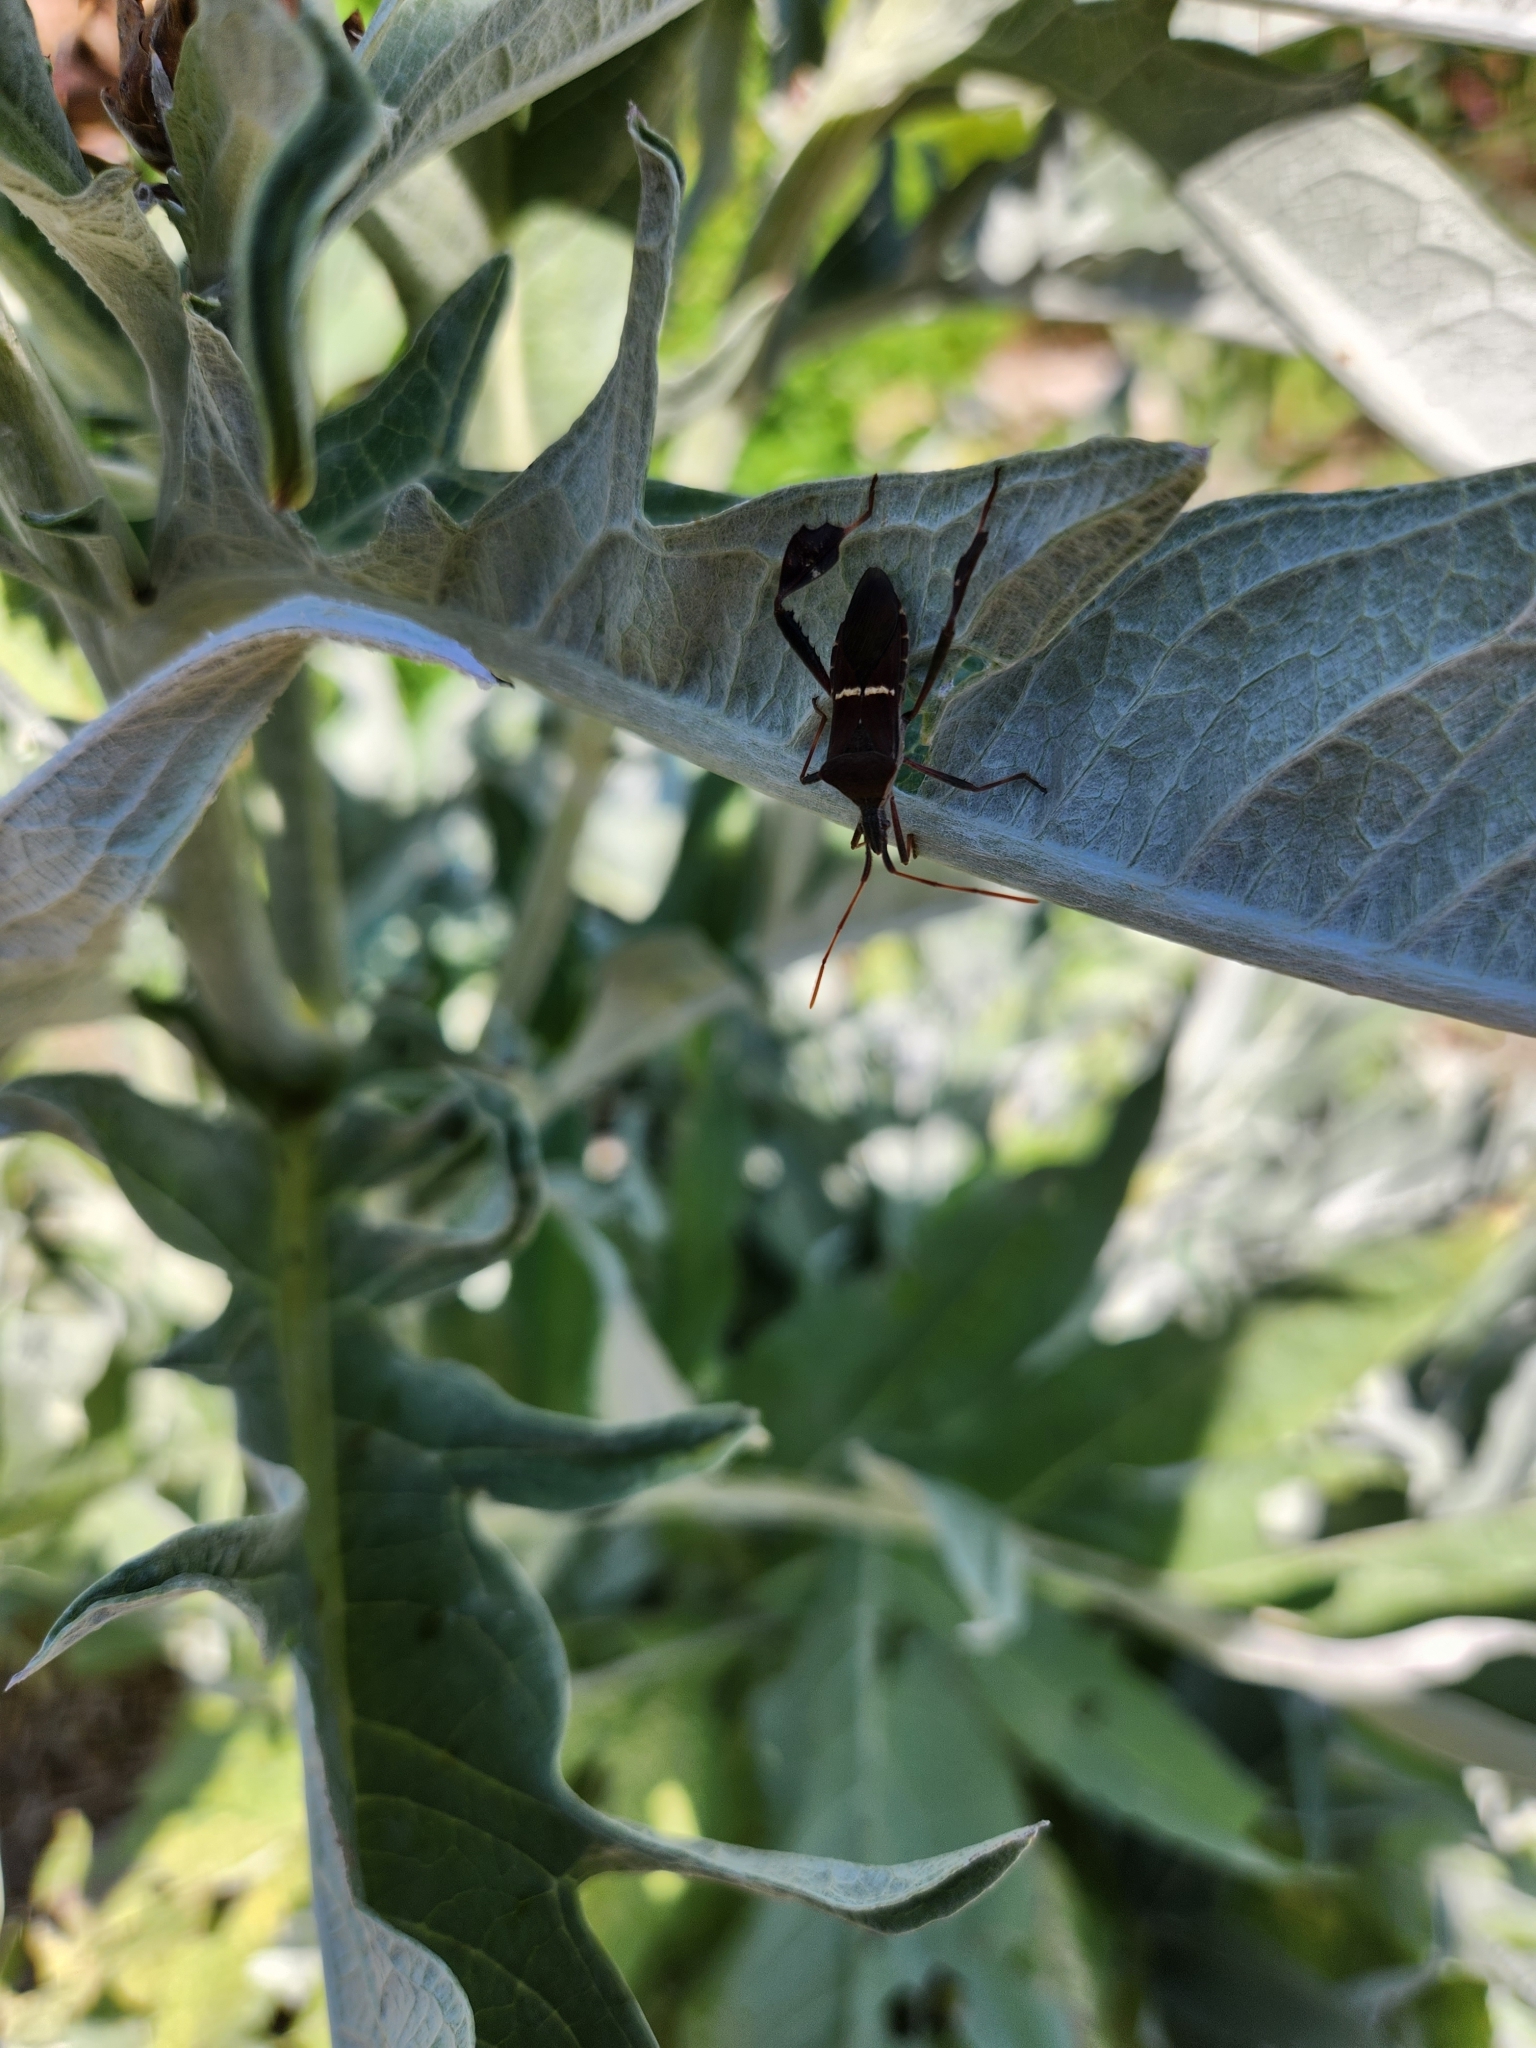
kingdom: Animalia
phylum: Arthropoda
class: Insecta
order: Hemiptera
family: Coreidae
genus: Leptoglossus
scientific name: Leptoglossus phyllopus
